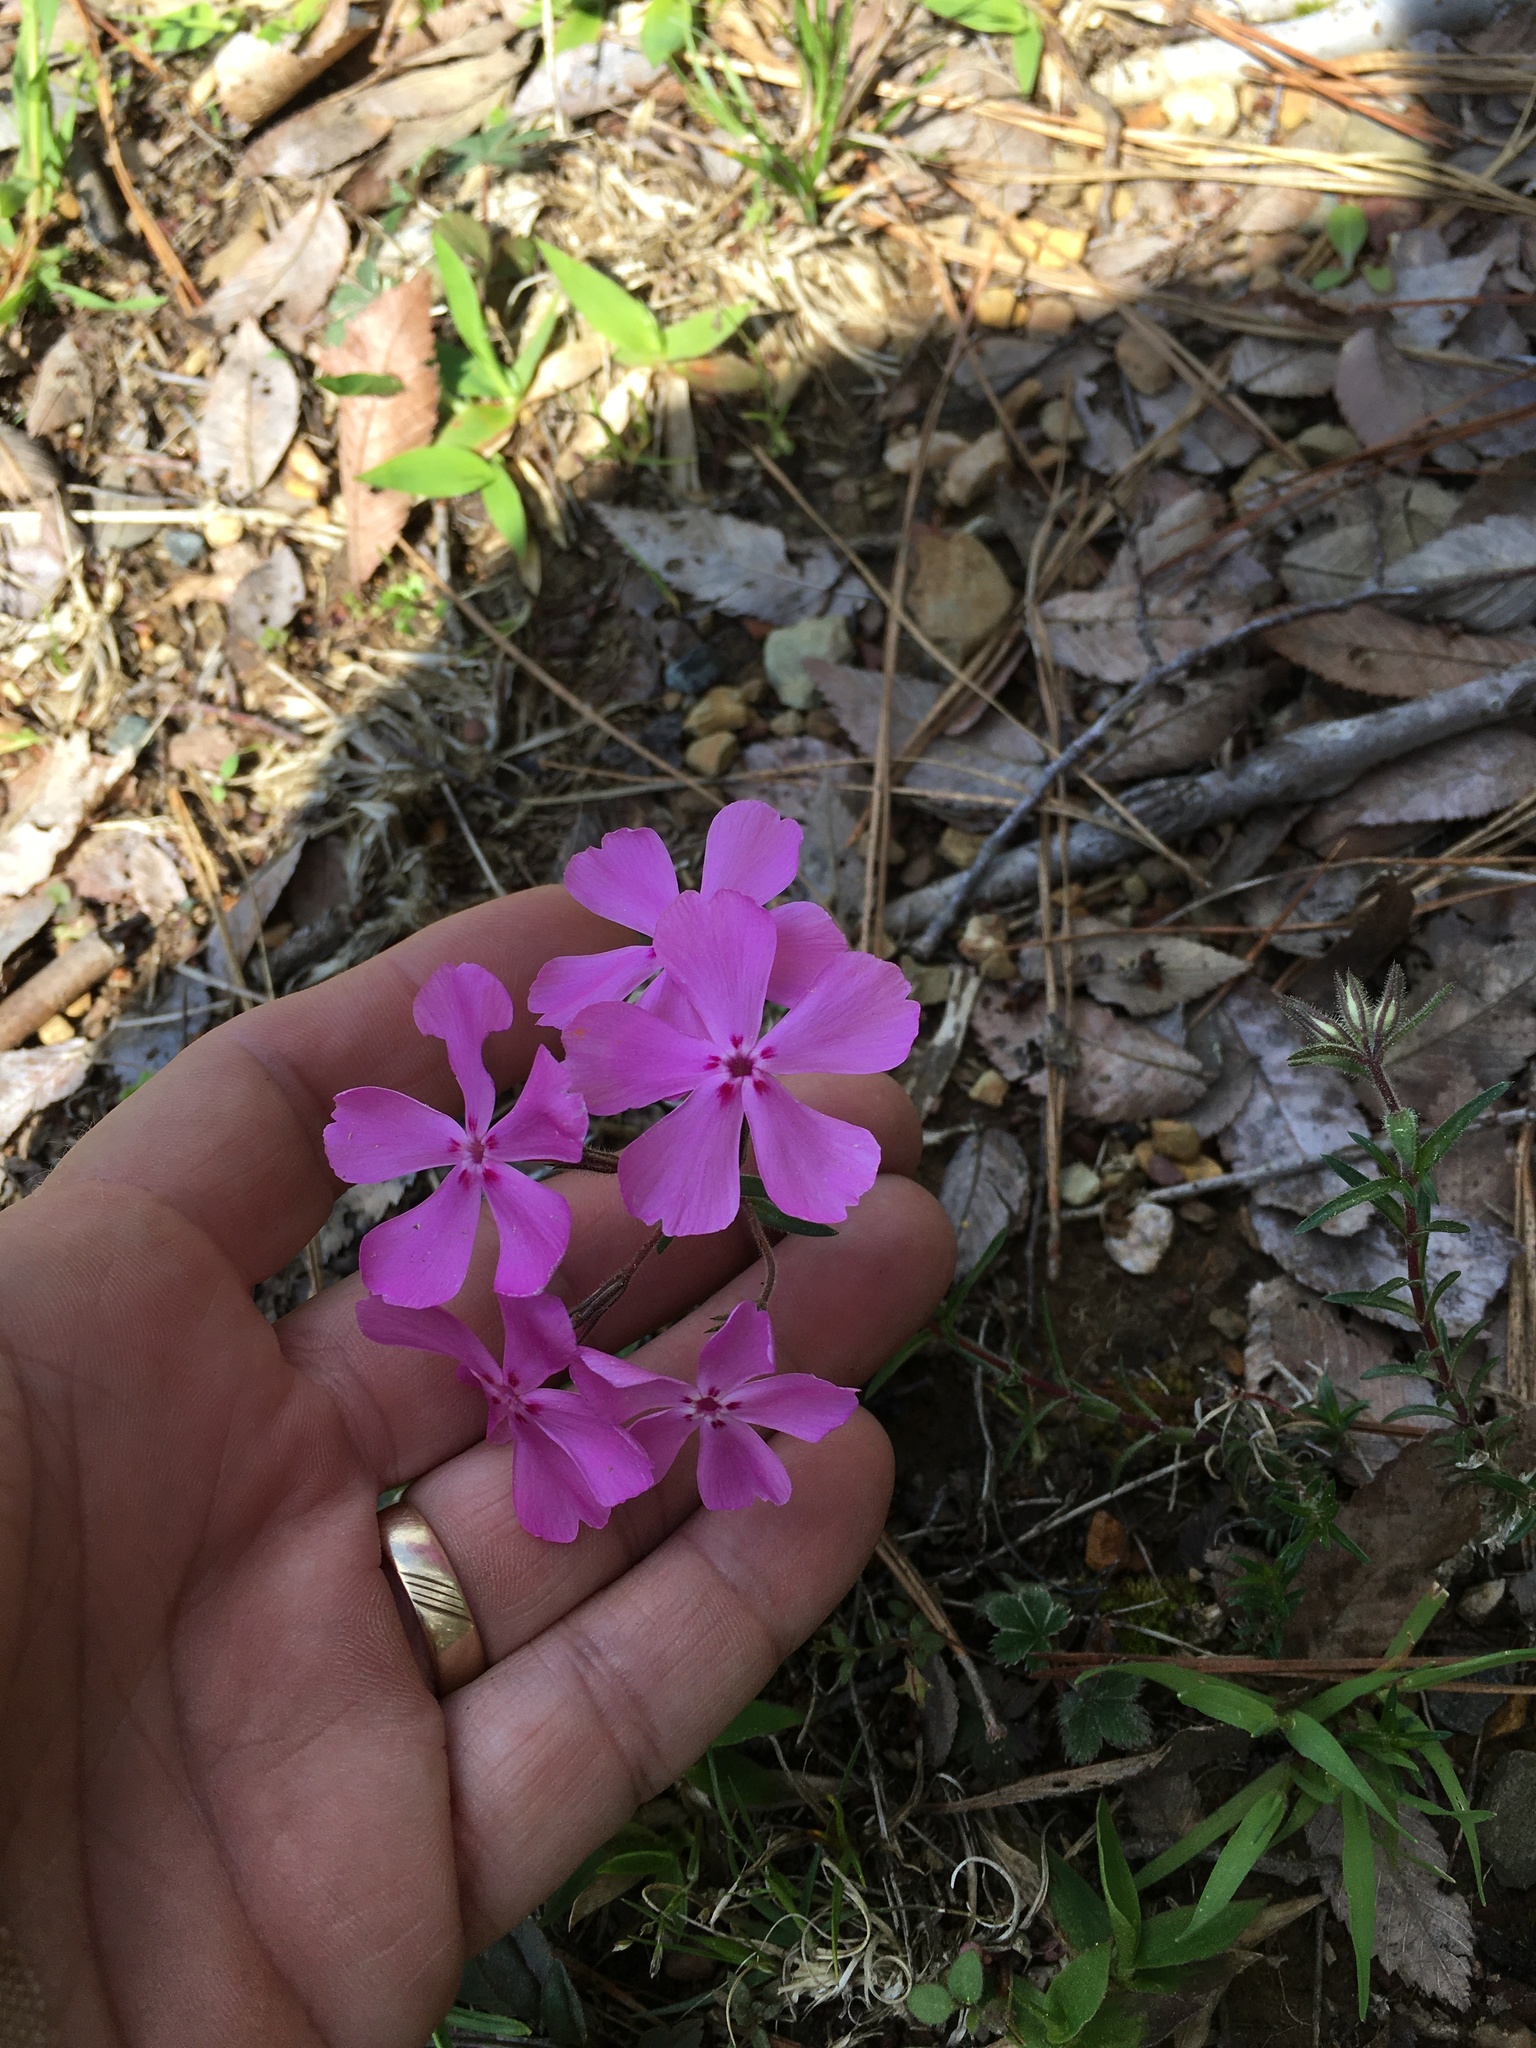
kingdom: Plantae
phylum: Tracheophyta
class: Magnoliopsida
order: Ericales
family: Polemoniaceae
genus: Phlox
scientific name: Phlox nivalis
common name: Trailing phlox
